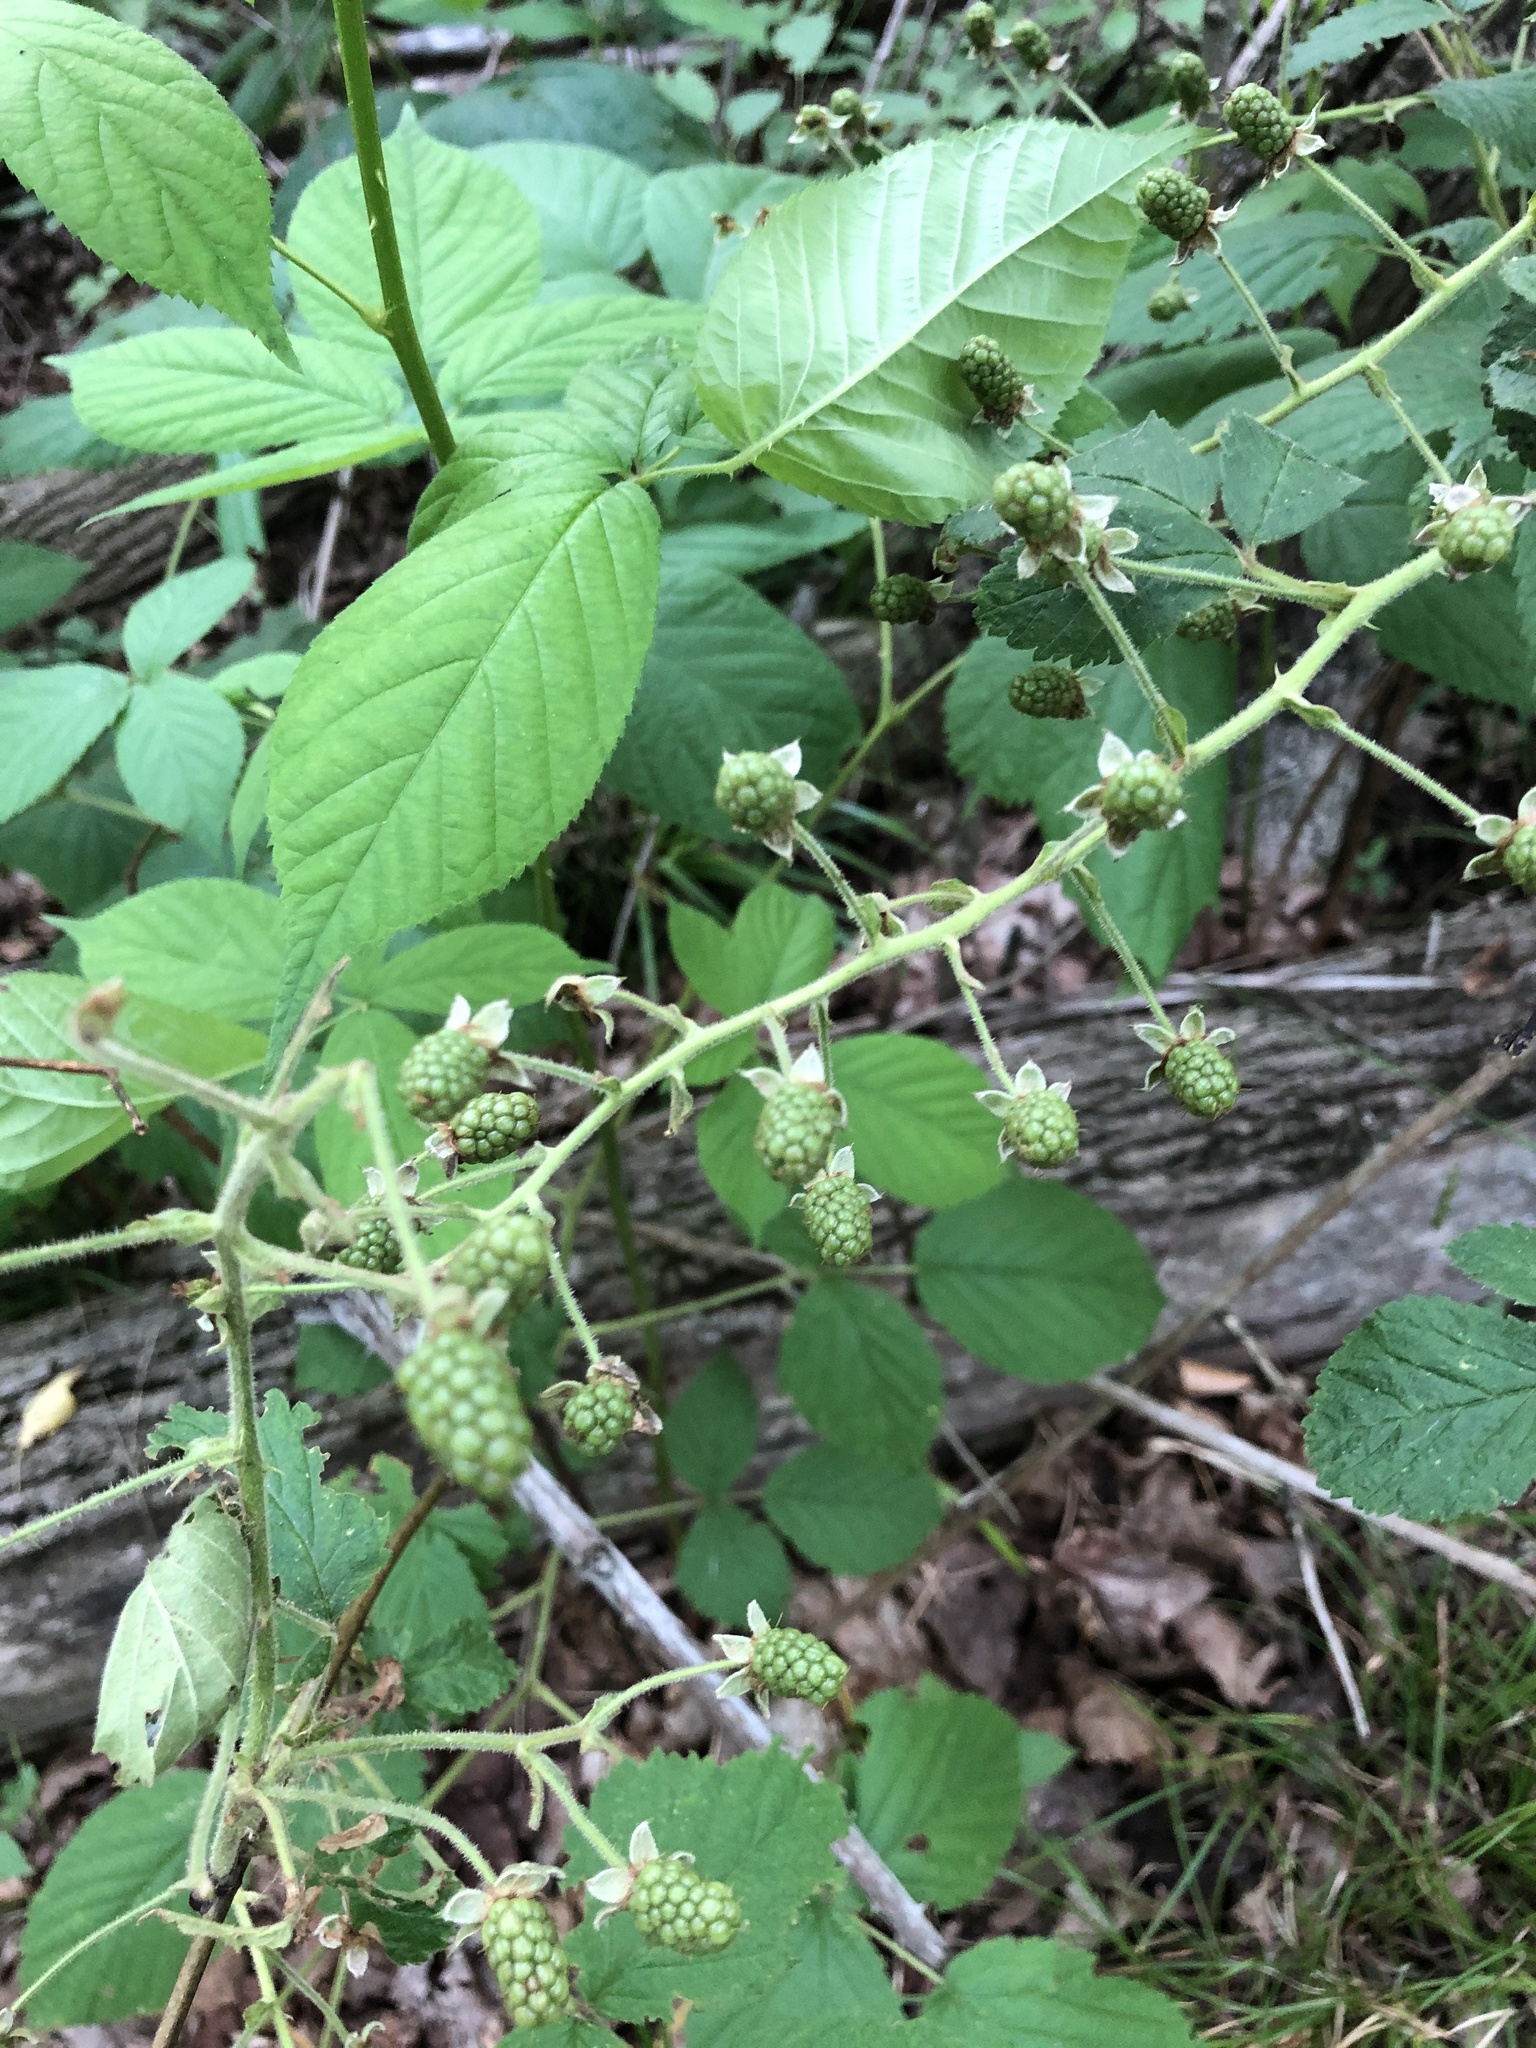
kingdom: Plantae
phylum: Tracheophyta
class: Magnoliopsida
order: Rosales
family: Rosaceae
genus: Rubus
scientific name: Rubus allegheniensis
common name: Allegheny blackberry
